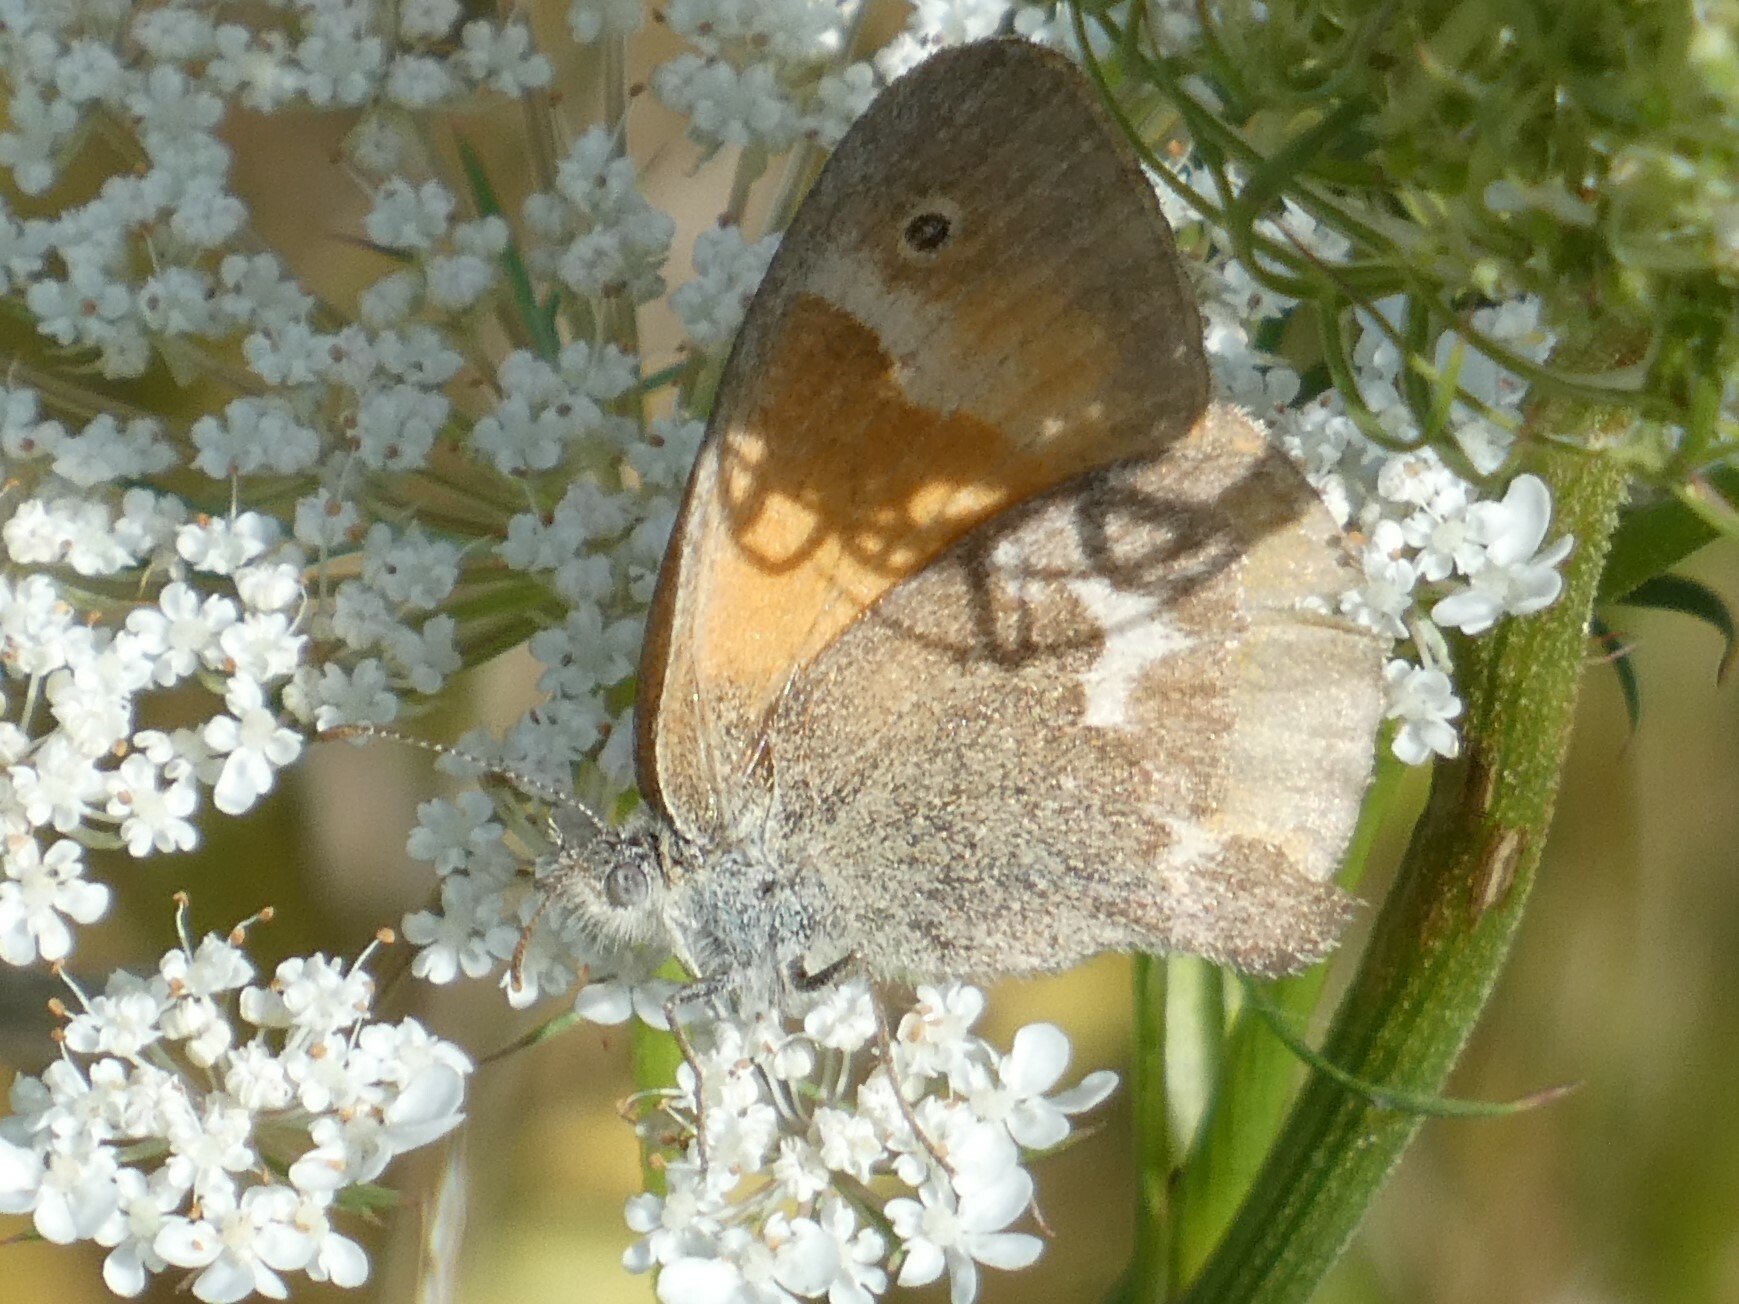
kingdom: Animalia
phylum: Arthropoda
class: Insecta
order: Lepidoptera
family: Nymphalidae
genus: Coenonympha
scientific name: Coenonympha california
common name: Common ringlet
